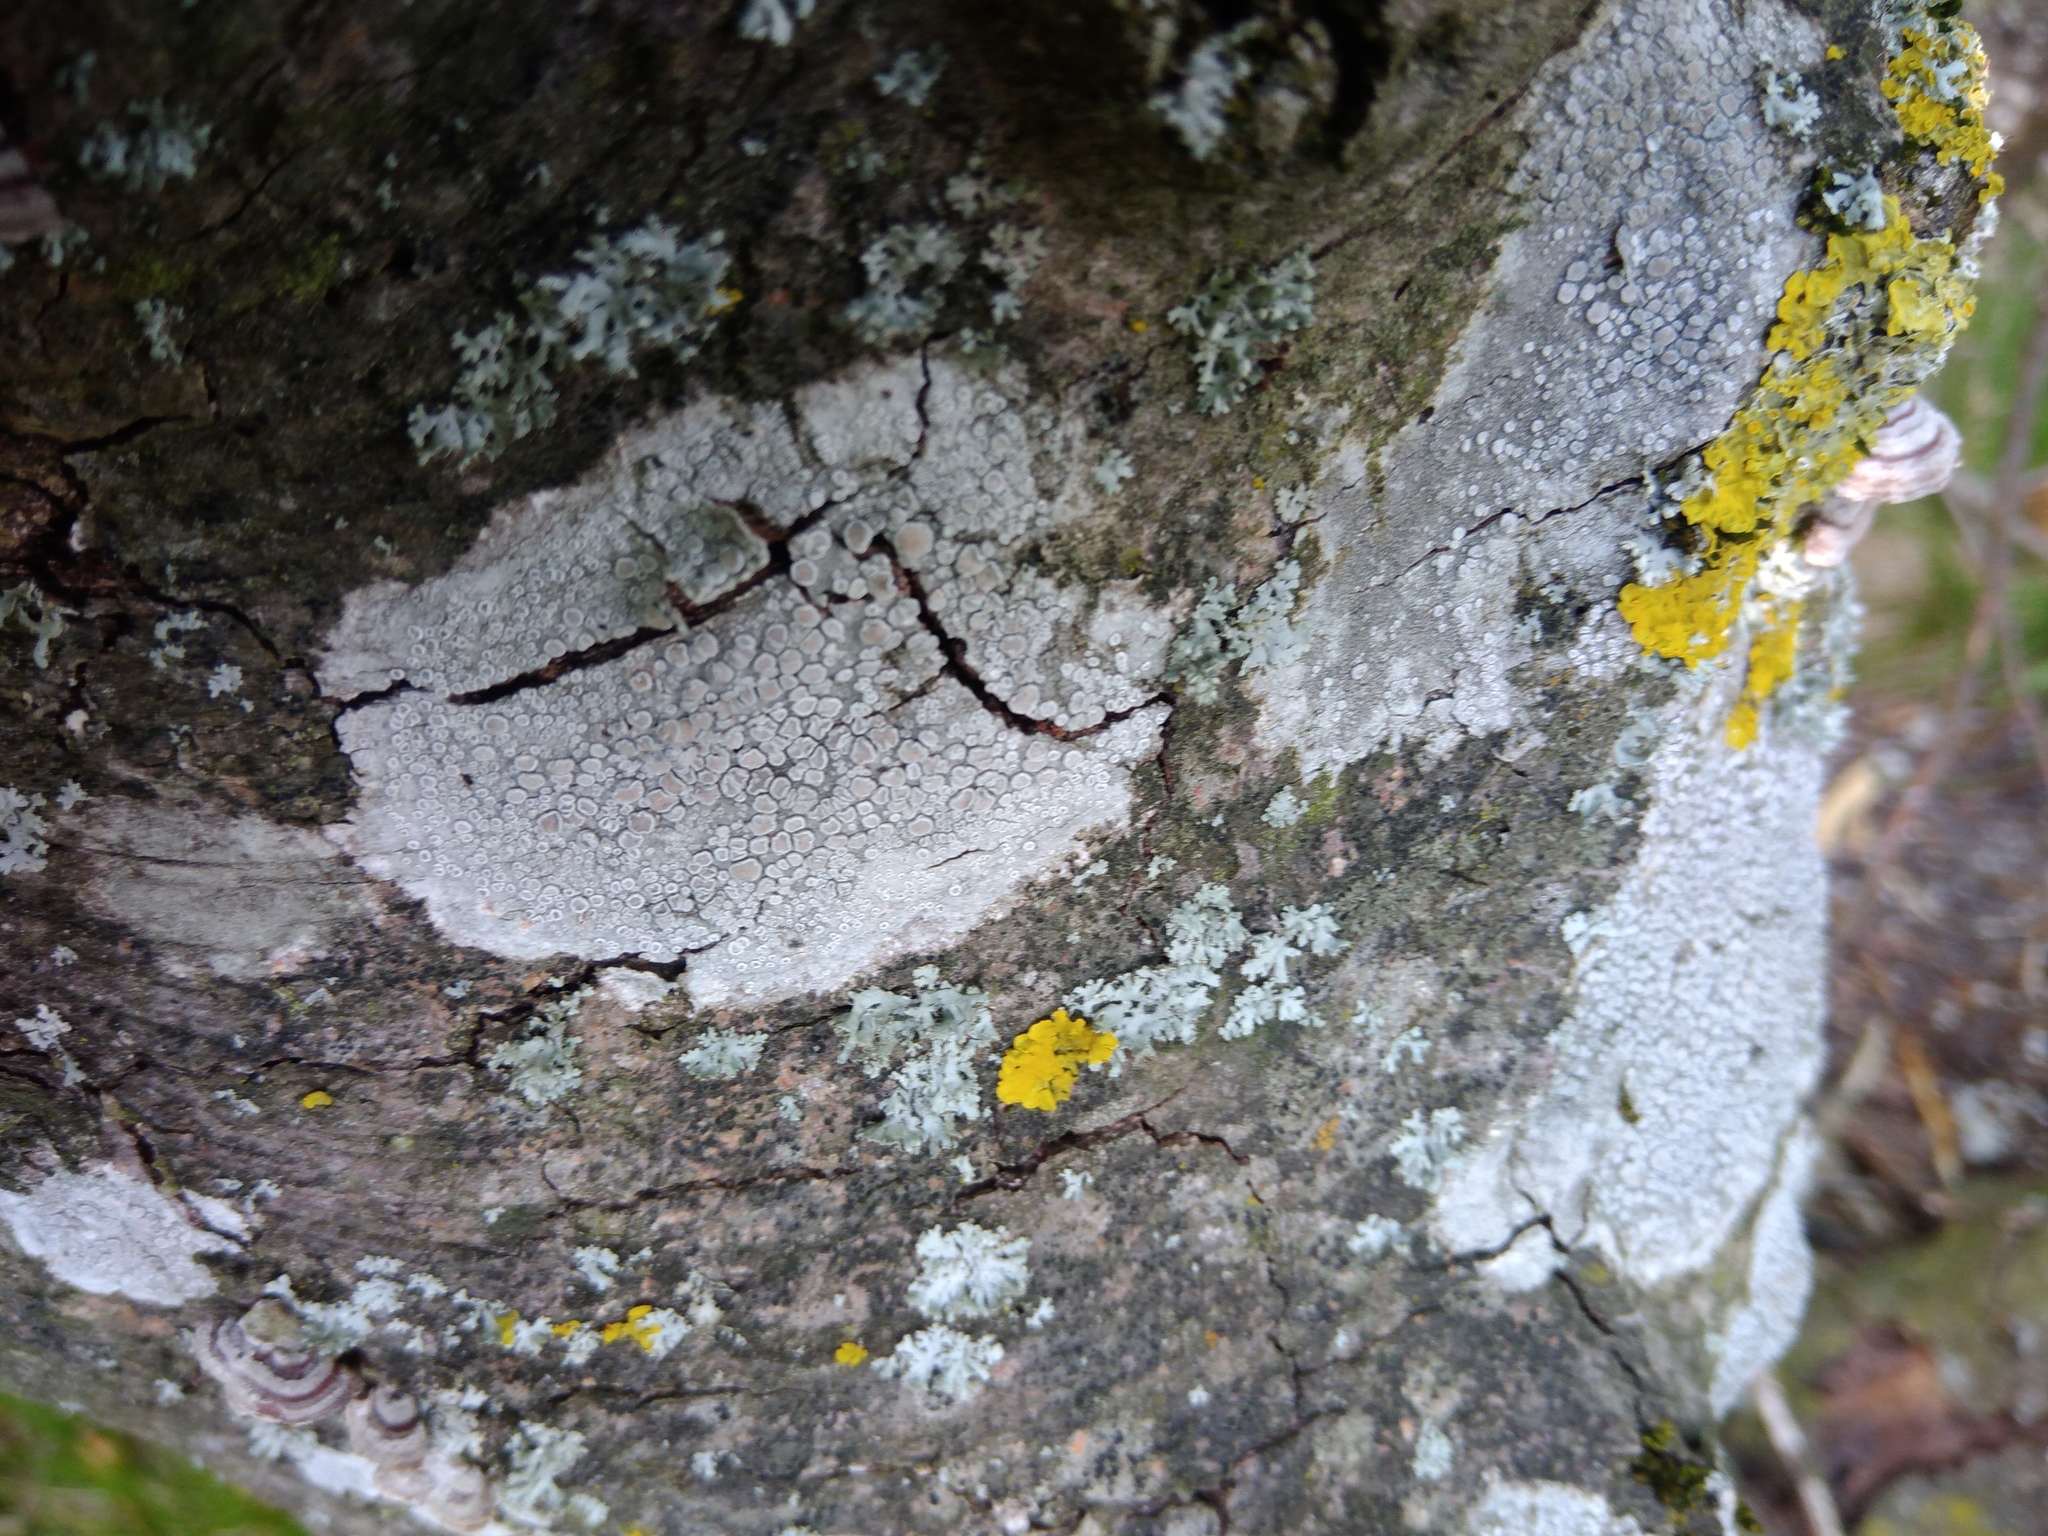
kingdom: Fungi
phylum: Ascomycota
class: Lecanoromycetes
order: Lecanorales
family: Lecanoraceae
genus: Glaucomaria
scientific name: Glaucomaria carpinea
